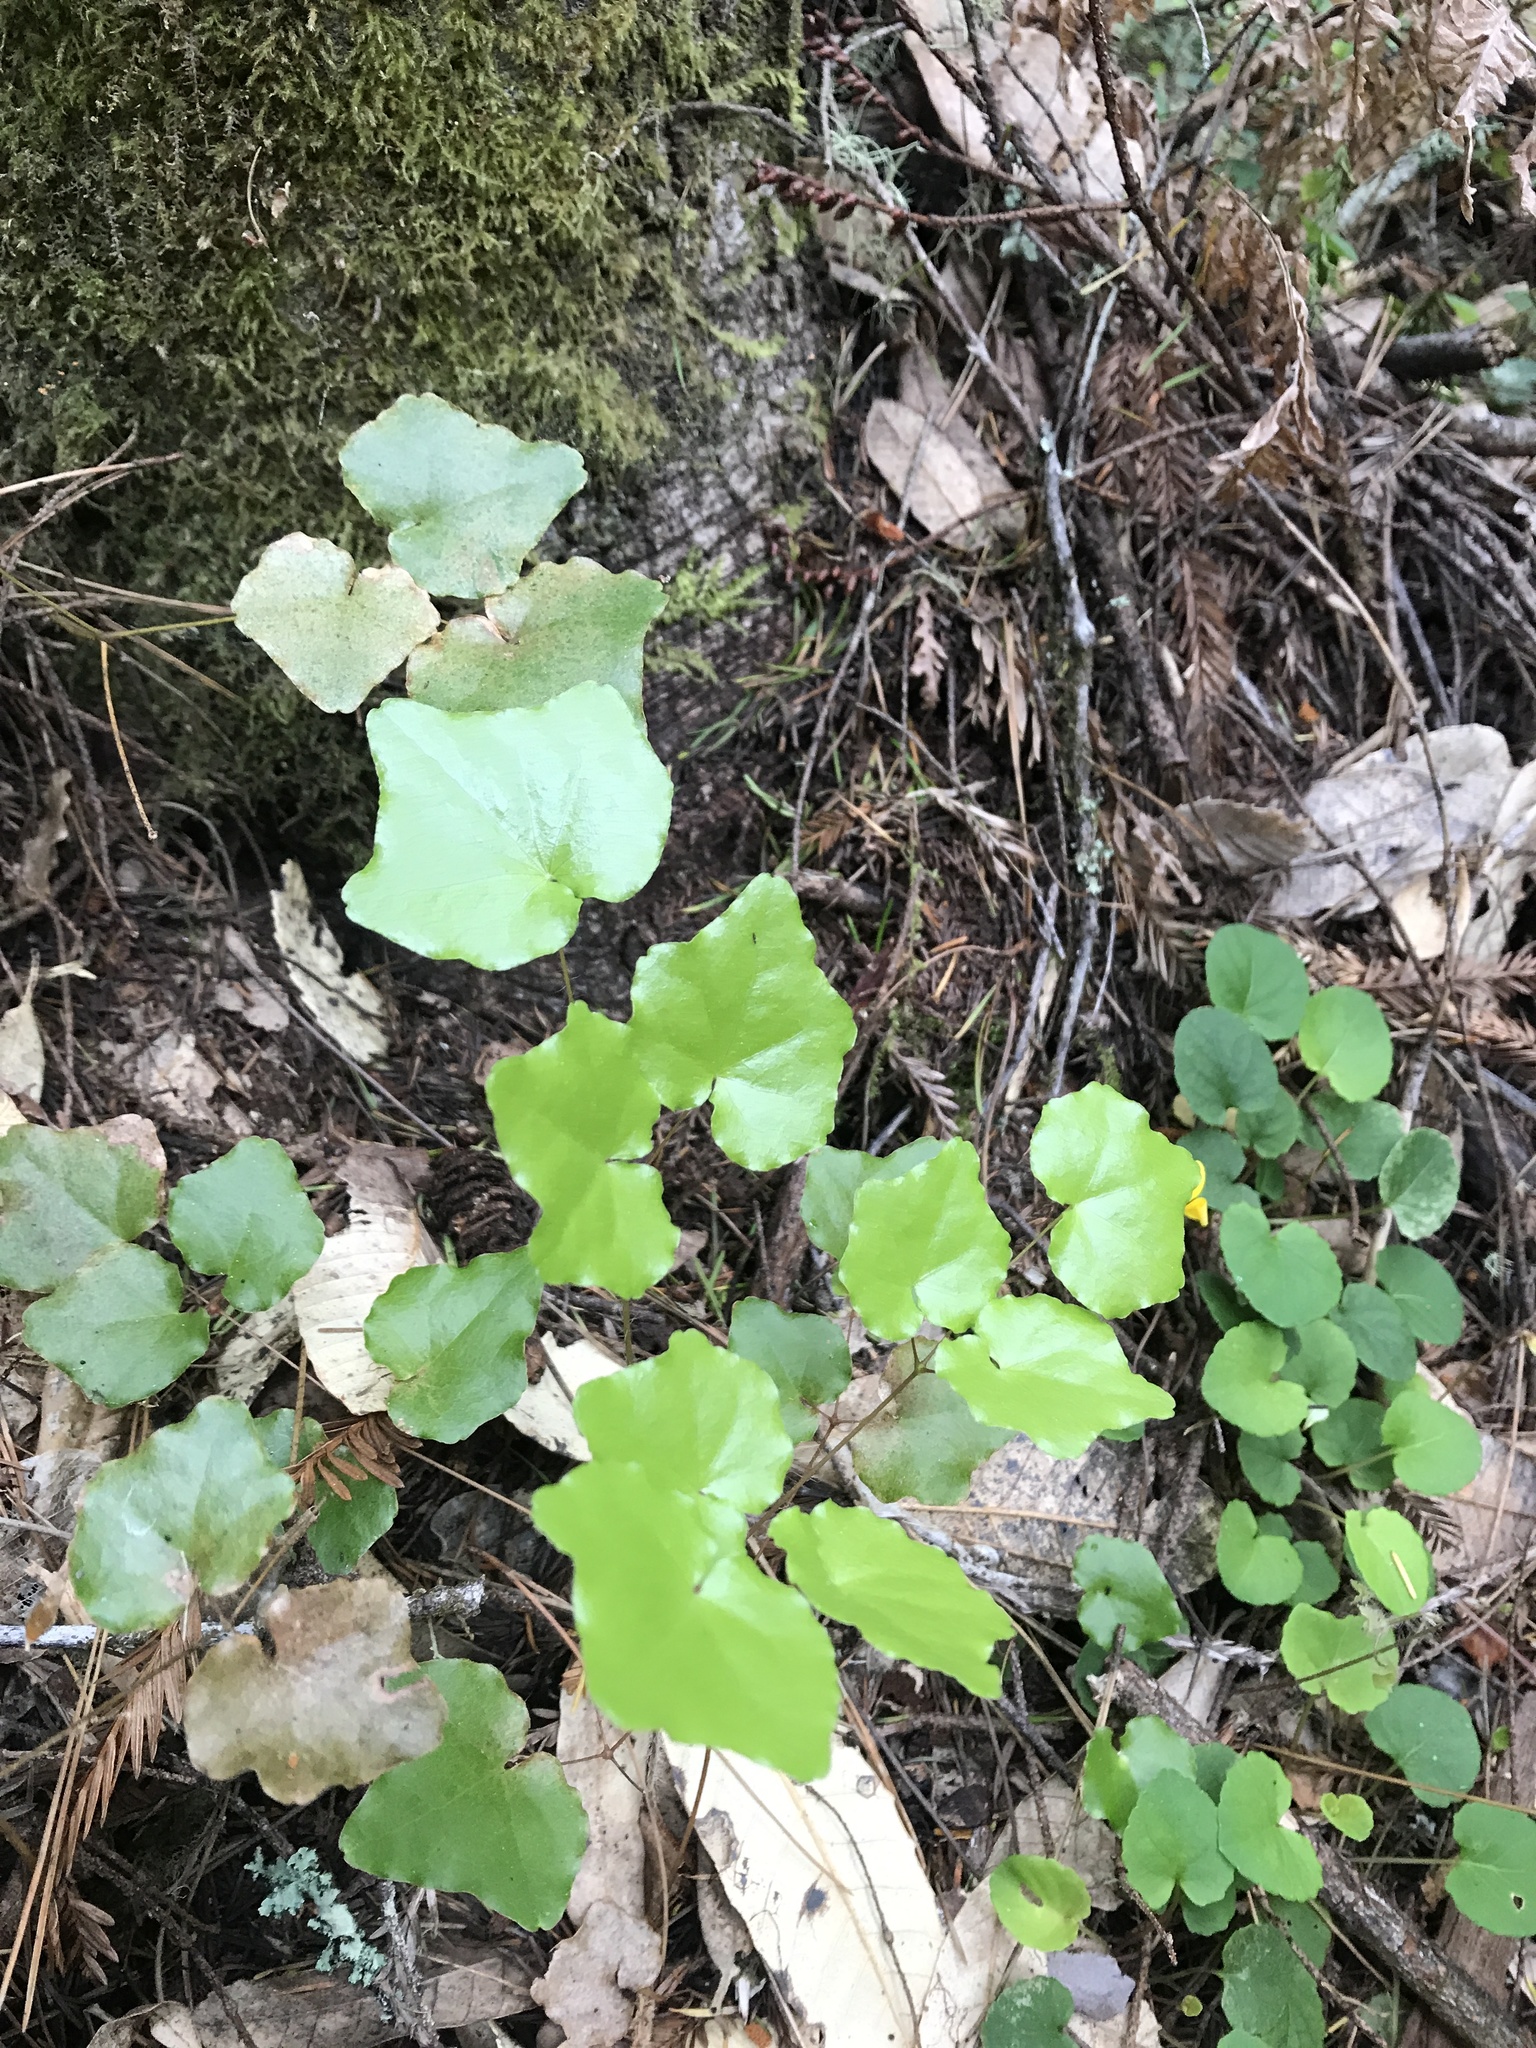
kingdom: Plantae
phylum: Tracheophyta
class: Magnoliopsida
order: Ranunculales
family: Berberidaceae
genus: Vancouveria
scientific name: Vancouveria planipetala
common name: Redwood-ivy
